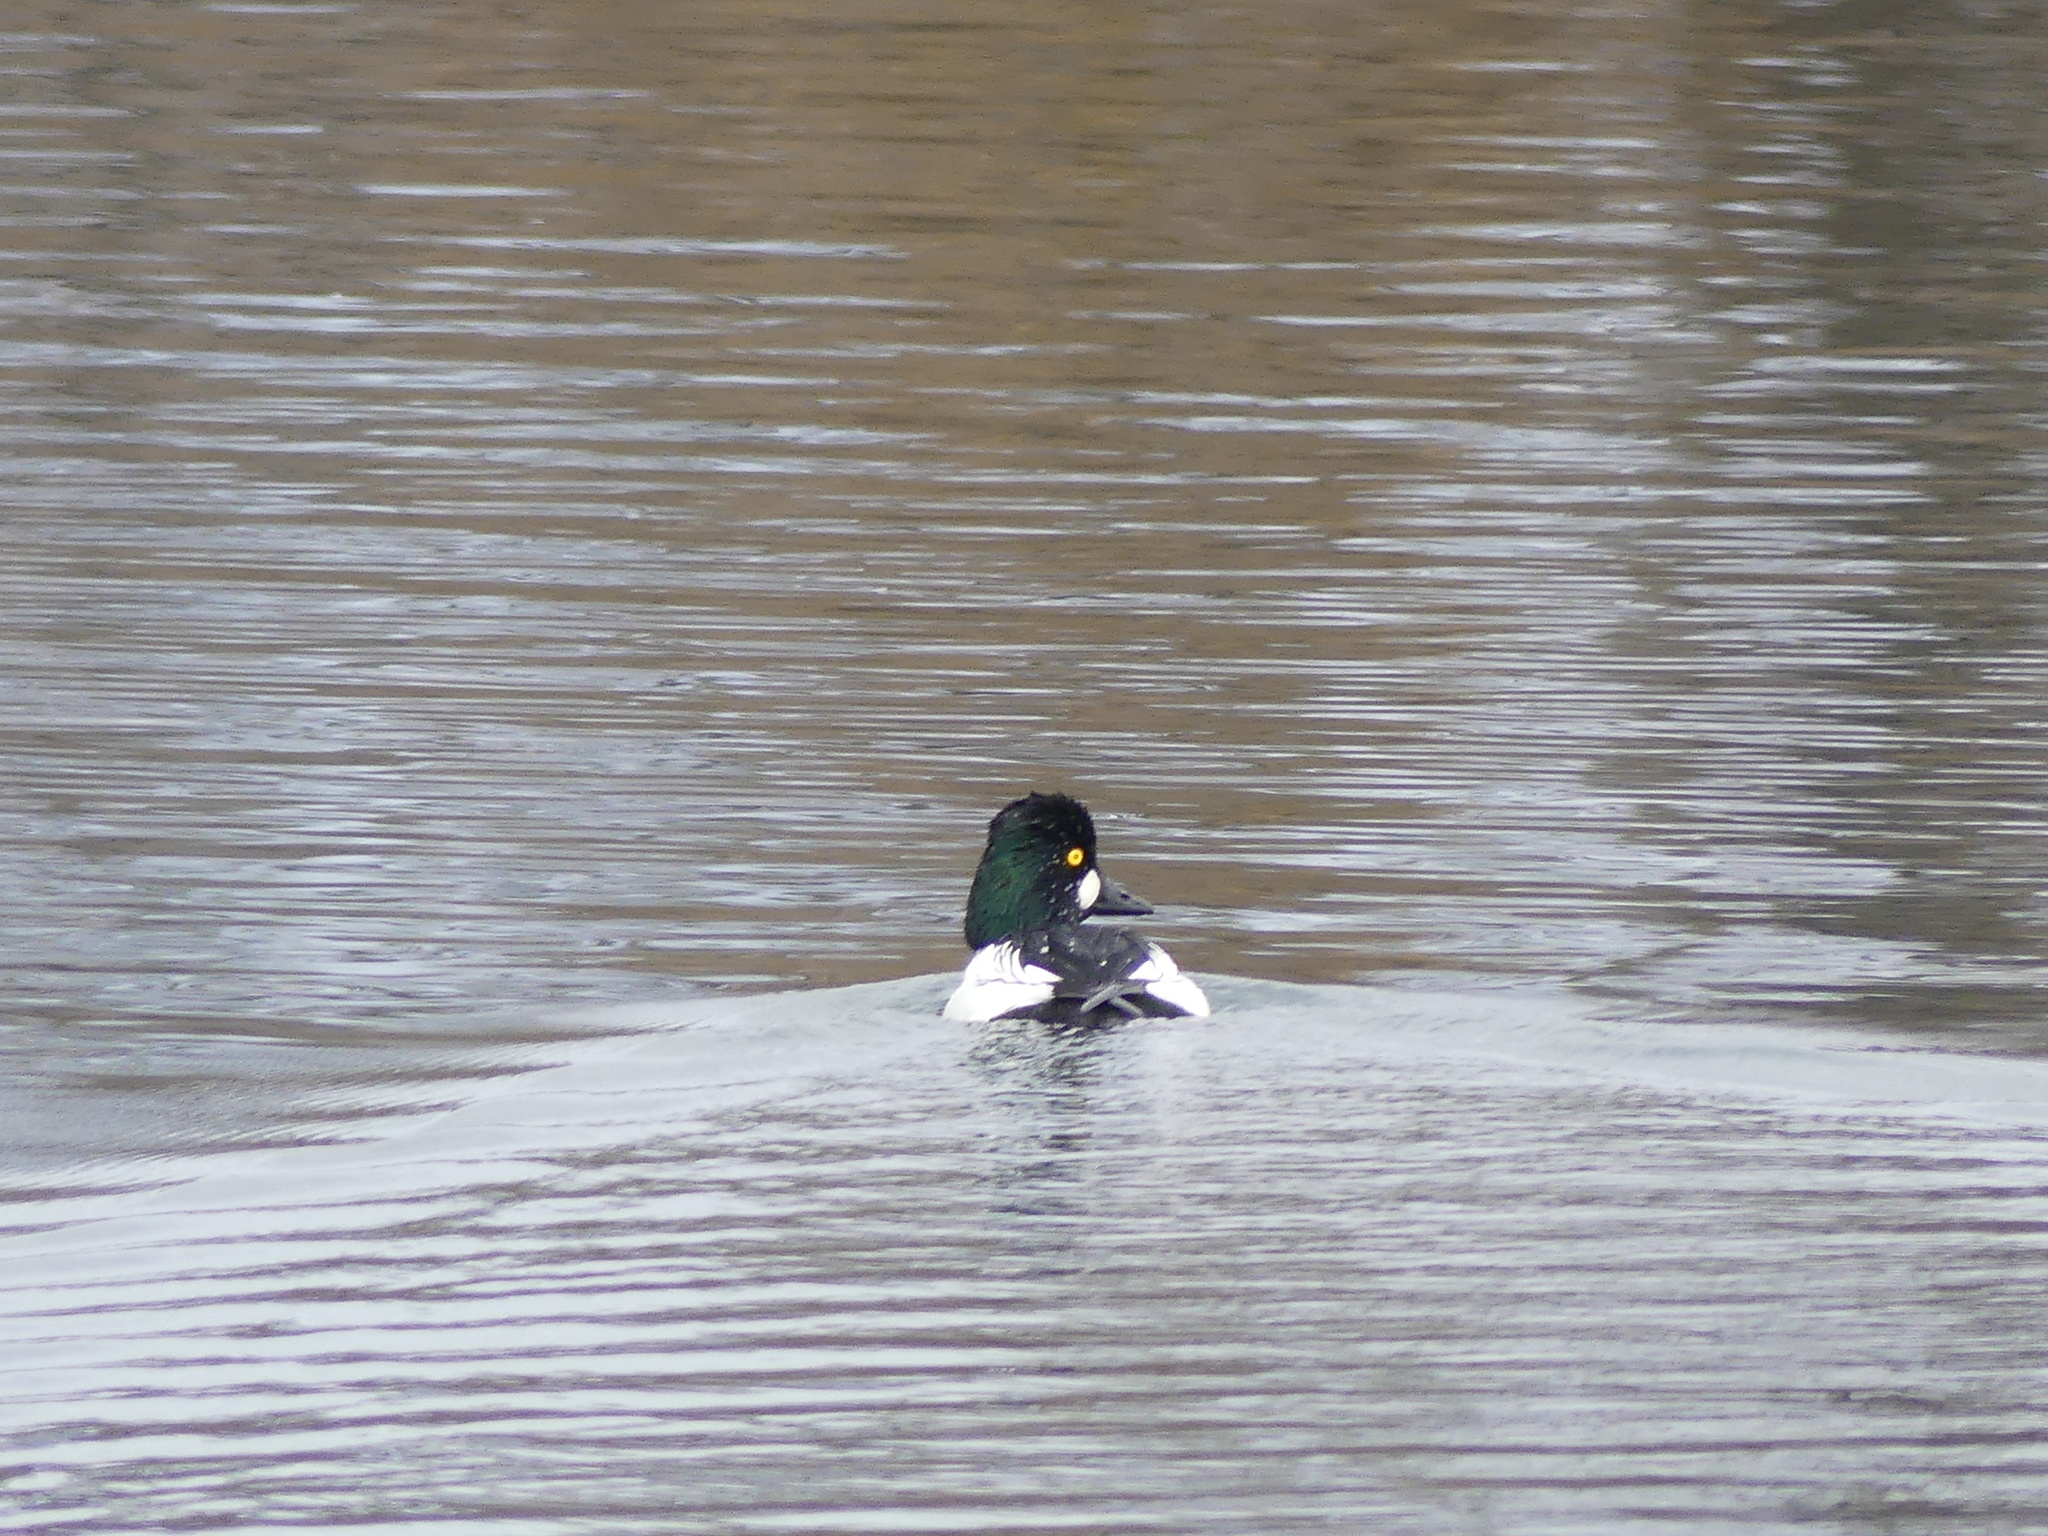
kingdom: Animalia
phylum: Chordata
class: Aves
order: Anseriformes
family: Anatidae
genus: Bucephala
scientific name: Bucephala clangula
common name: Common goldeneye
